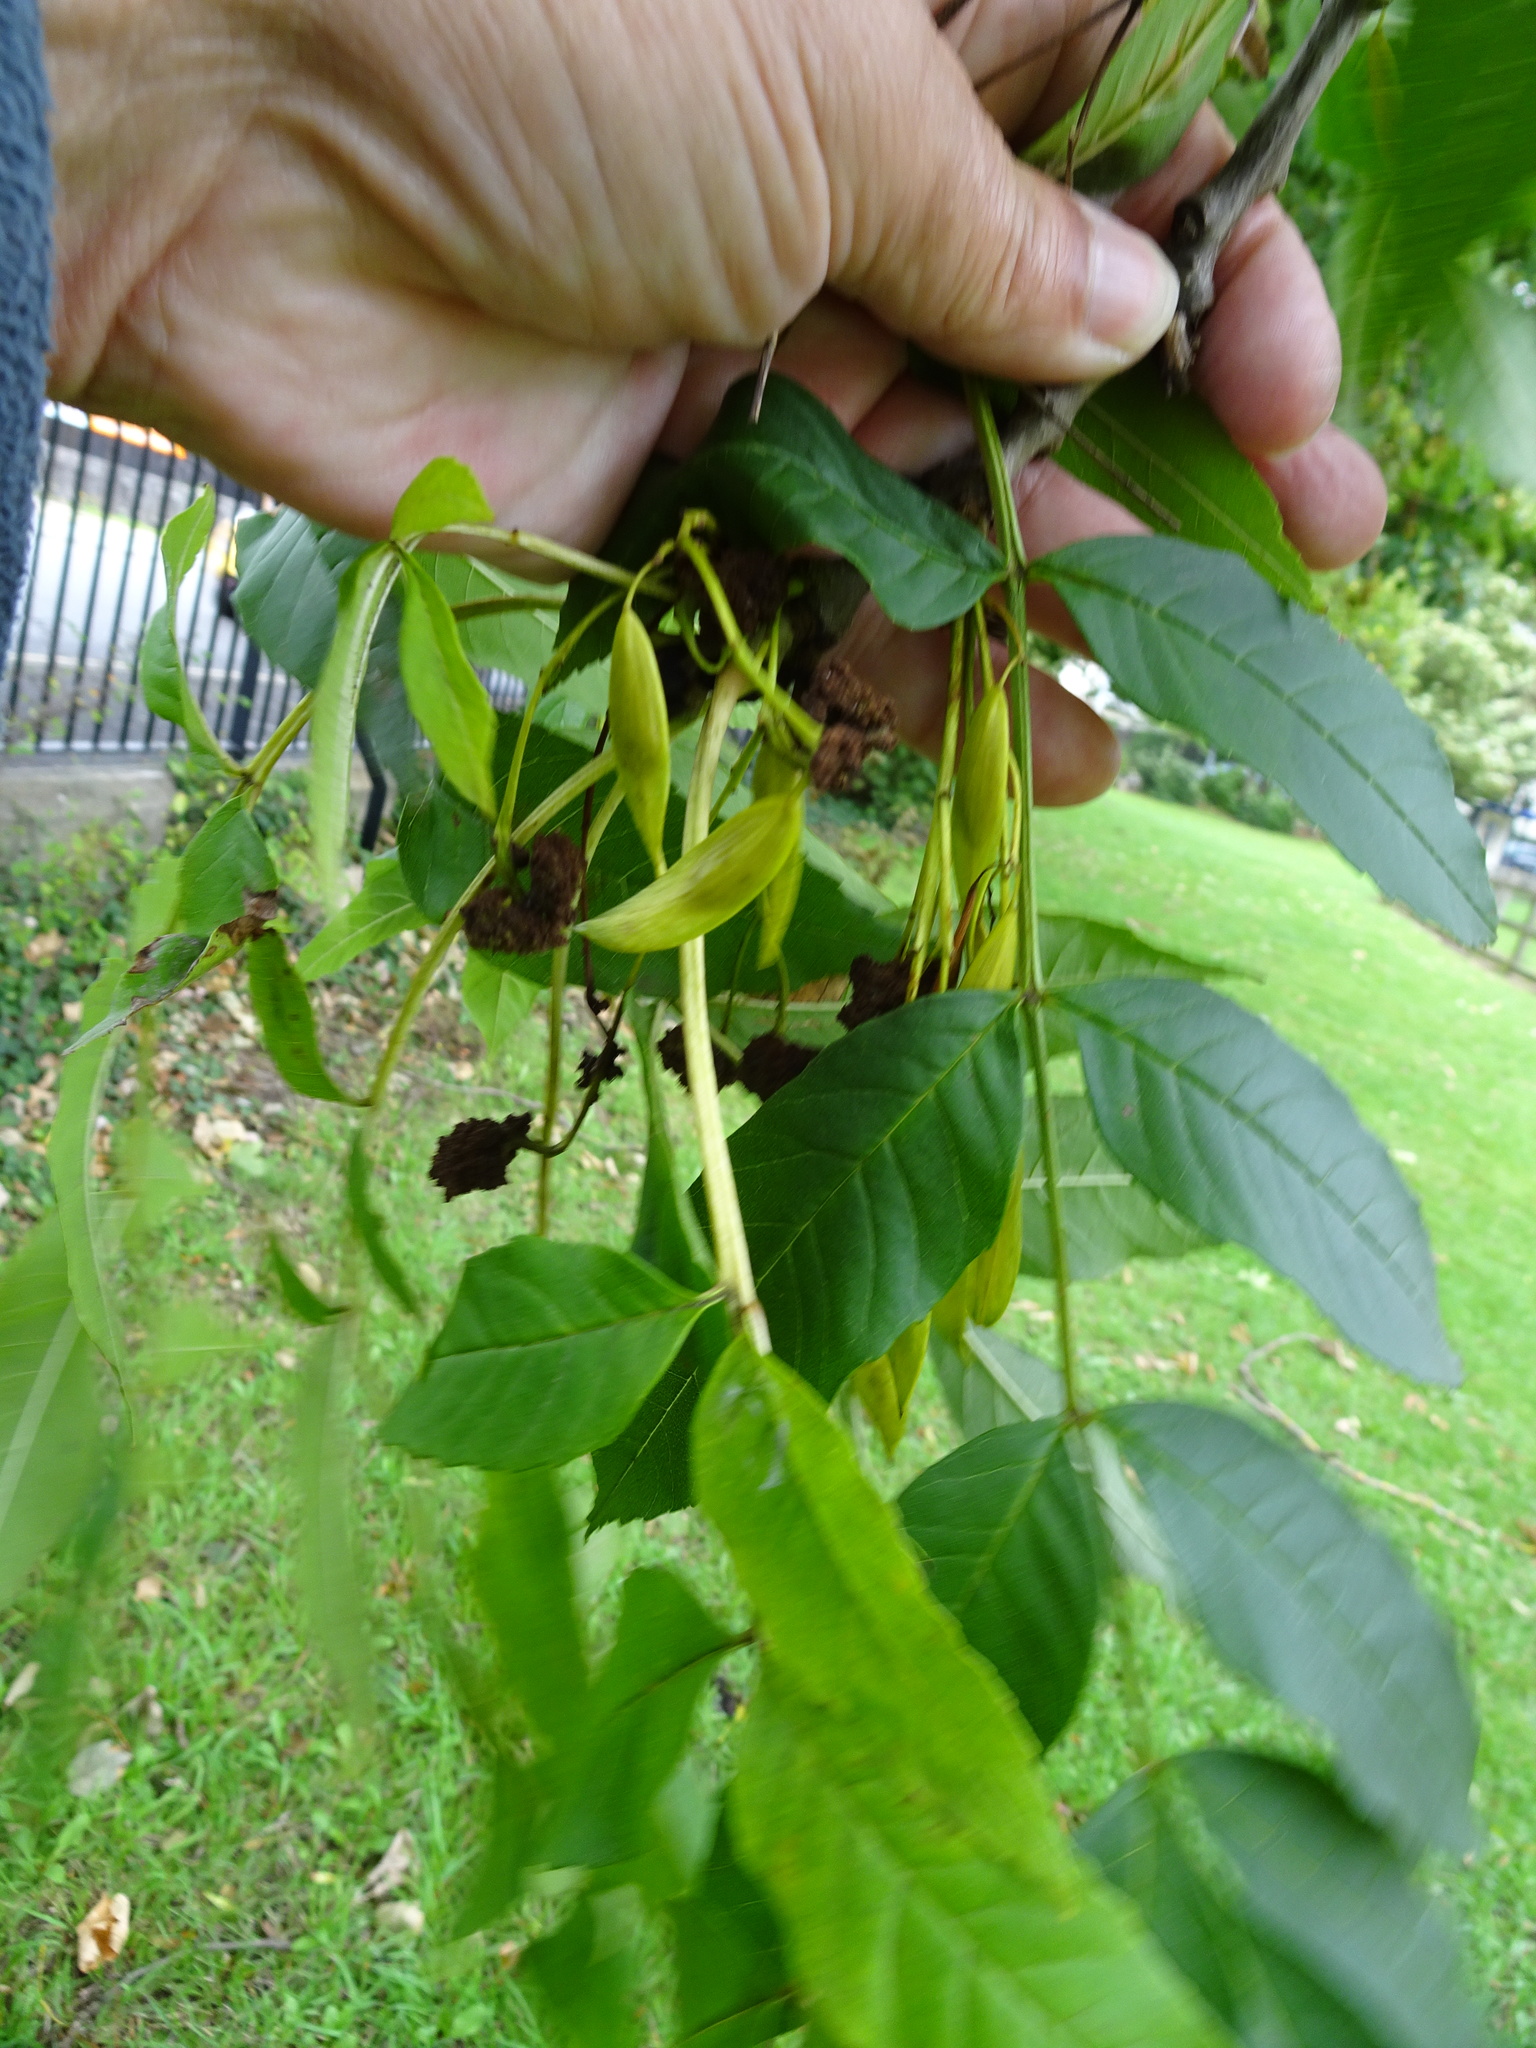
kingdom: Plantae
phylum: Tracheophyta
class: Magnoliopsida
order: Lamiales
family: Oleaceae
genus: Fraxinus
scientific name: Fraxinus excelsior
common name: European ash
